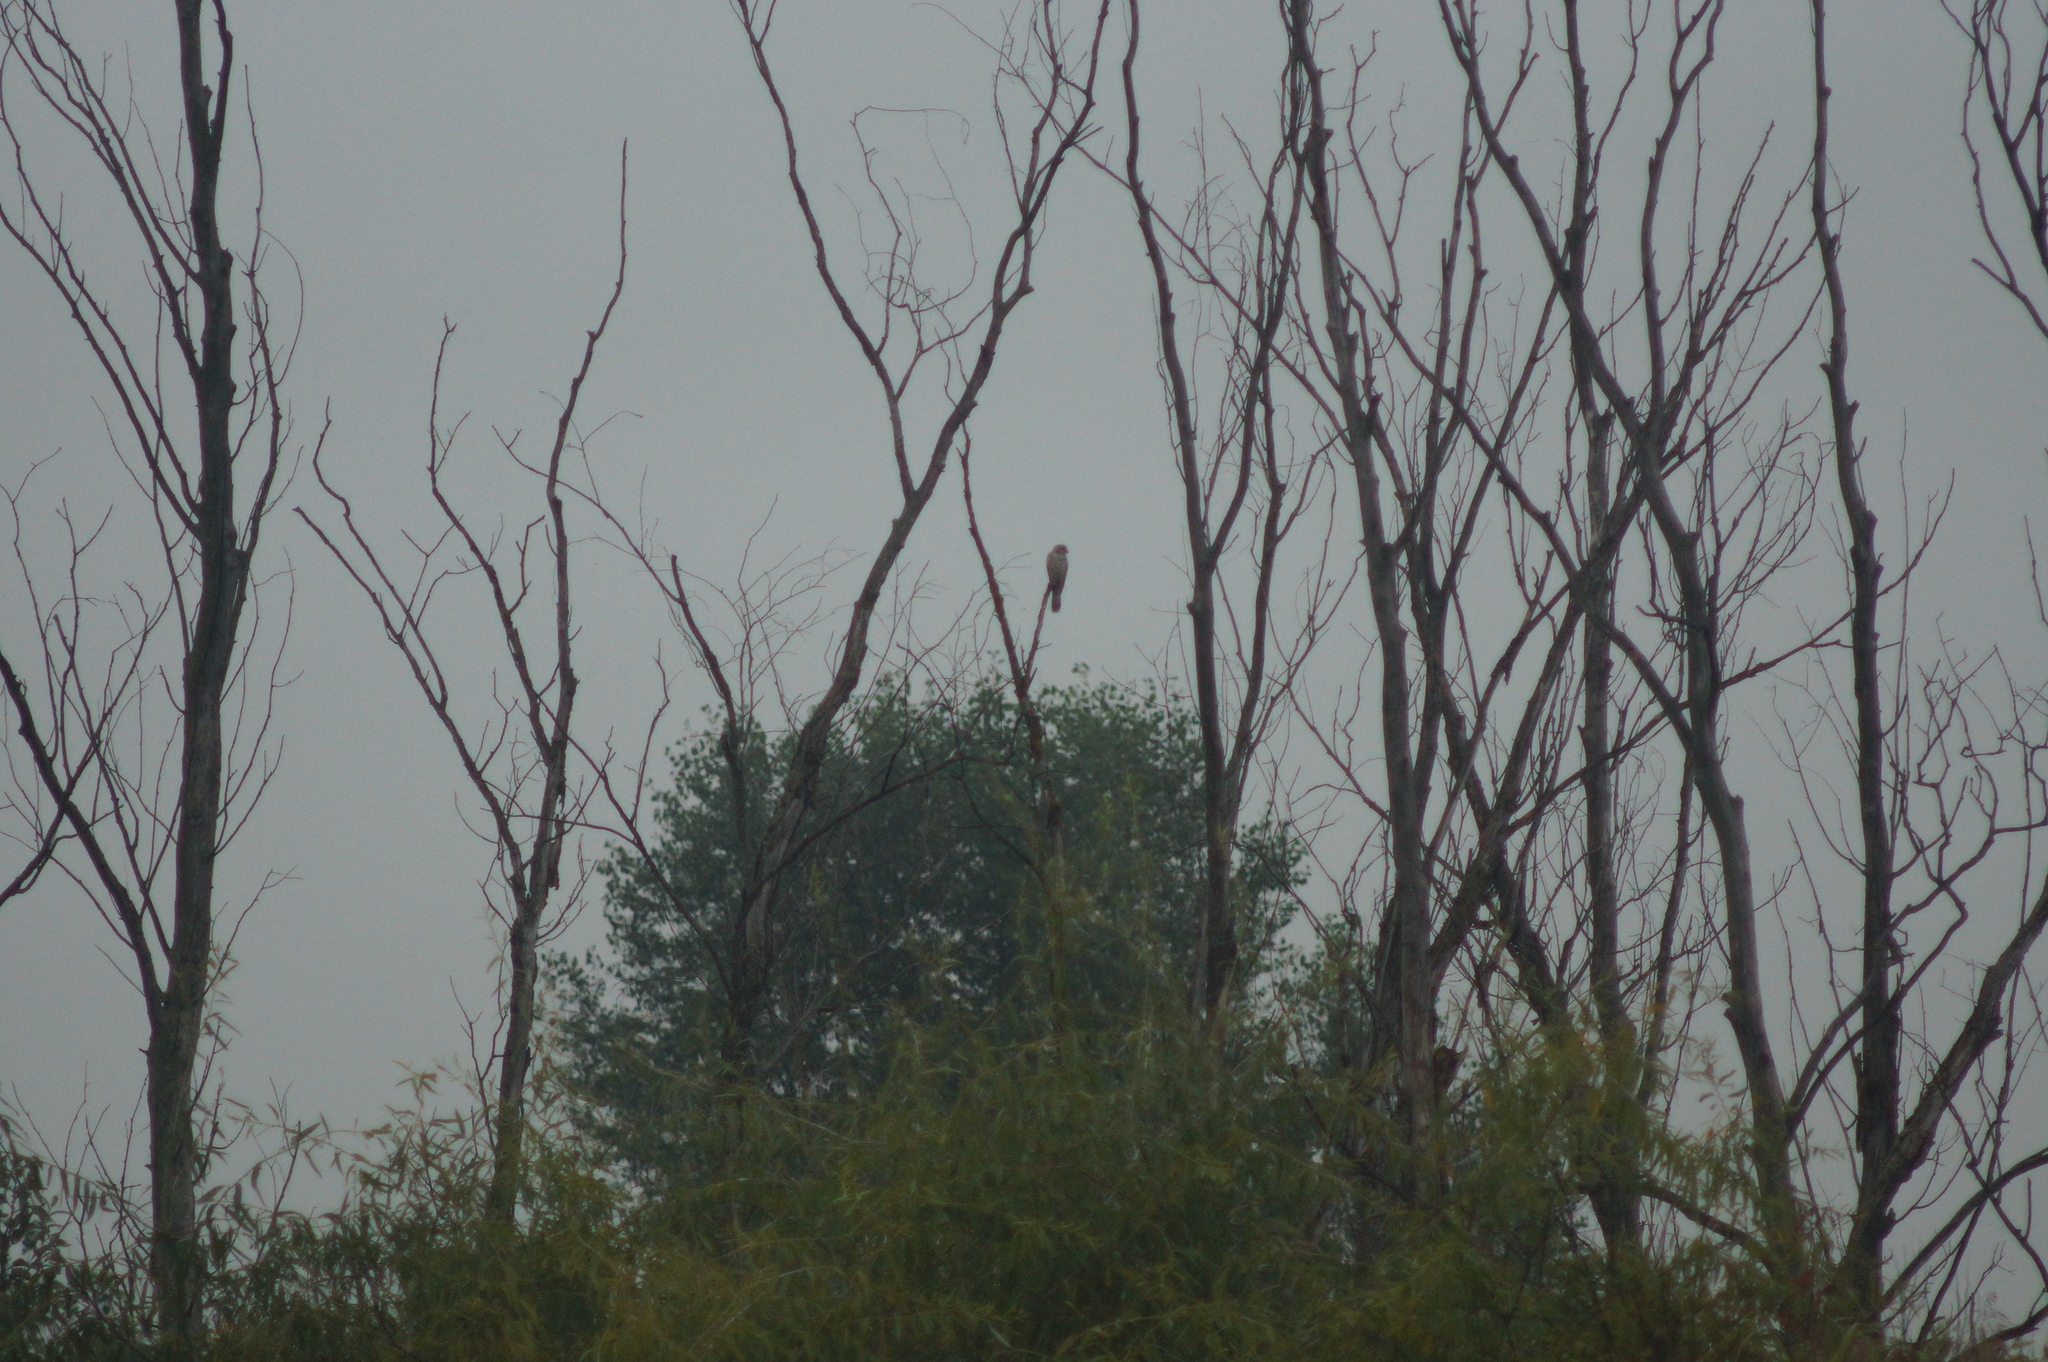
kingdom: Animalia
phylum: Chordata
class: Aves
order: Falconiformes
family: Falconidae
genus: Falco
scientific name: Falco tinnunculus
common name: Common kestrel
